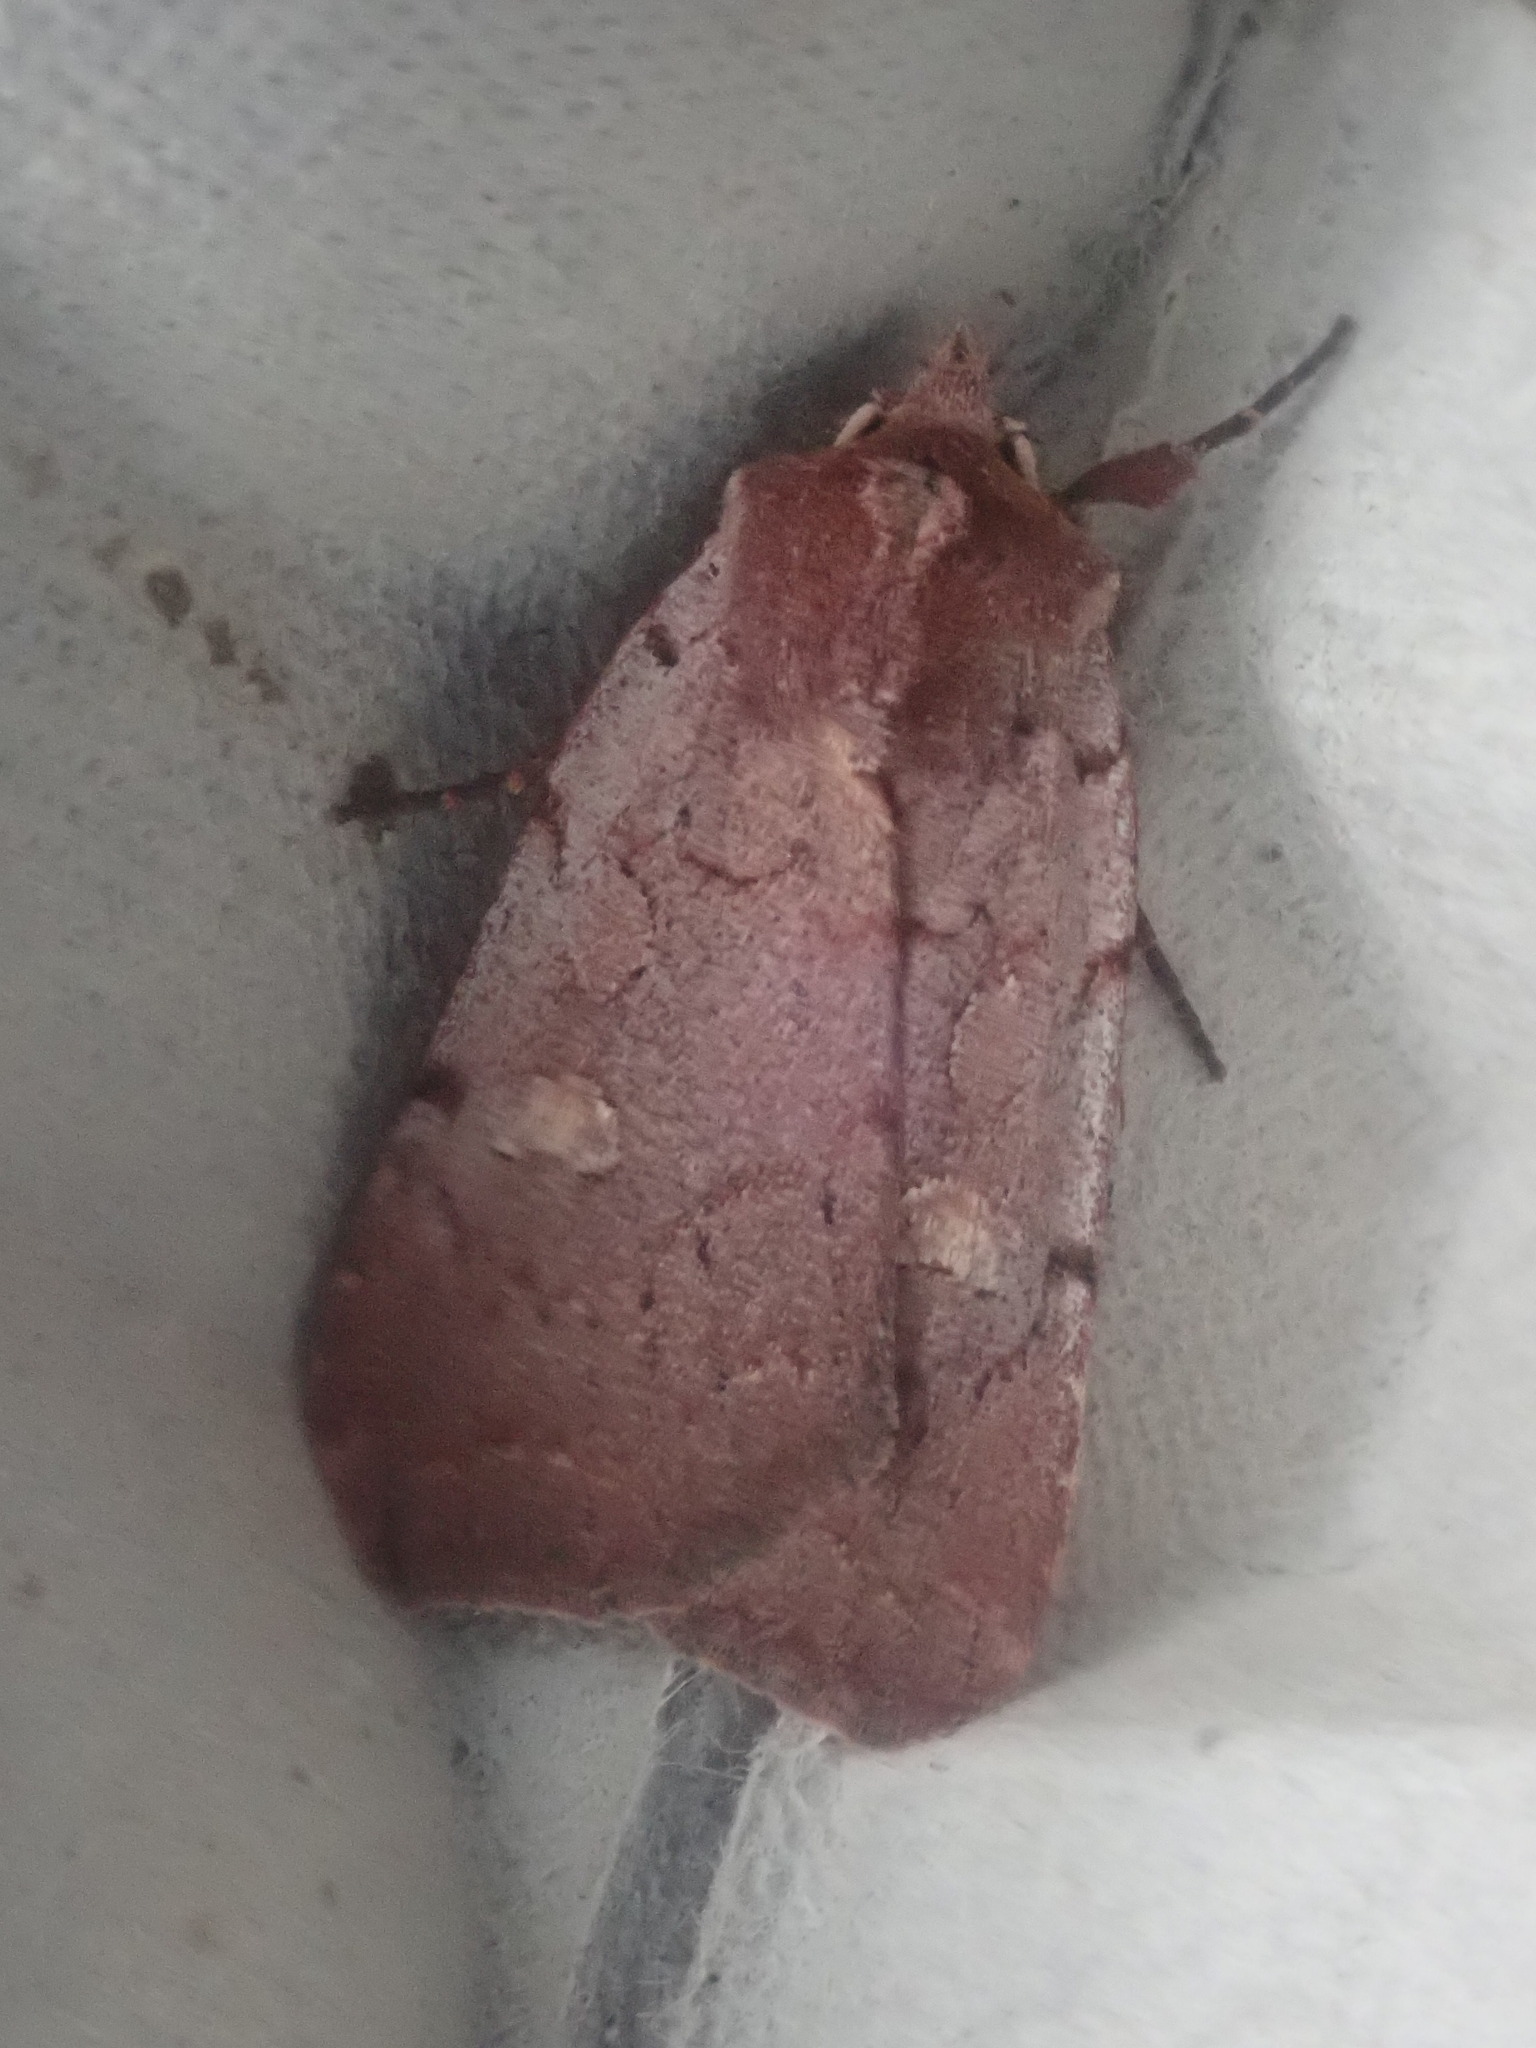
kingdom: Animalia
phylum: Arthropoda
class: Insecta
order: Lepidoptera
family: Noctuidae
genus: Xestia
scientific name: Xestia dilucida
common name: Dull reddish dart
